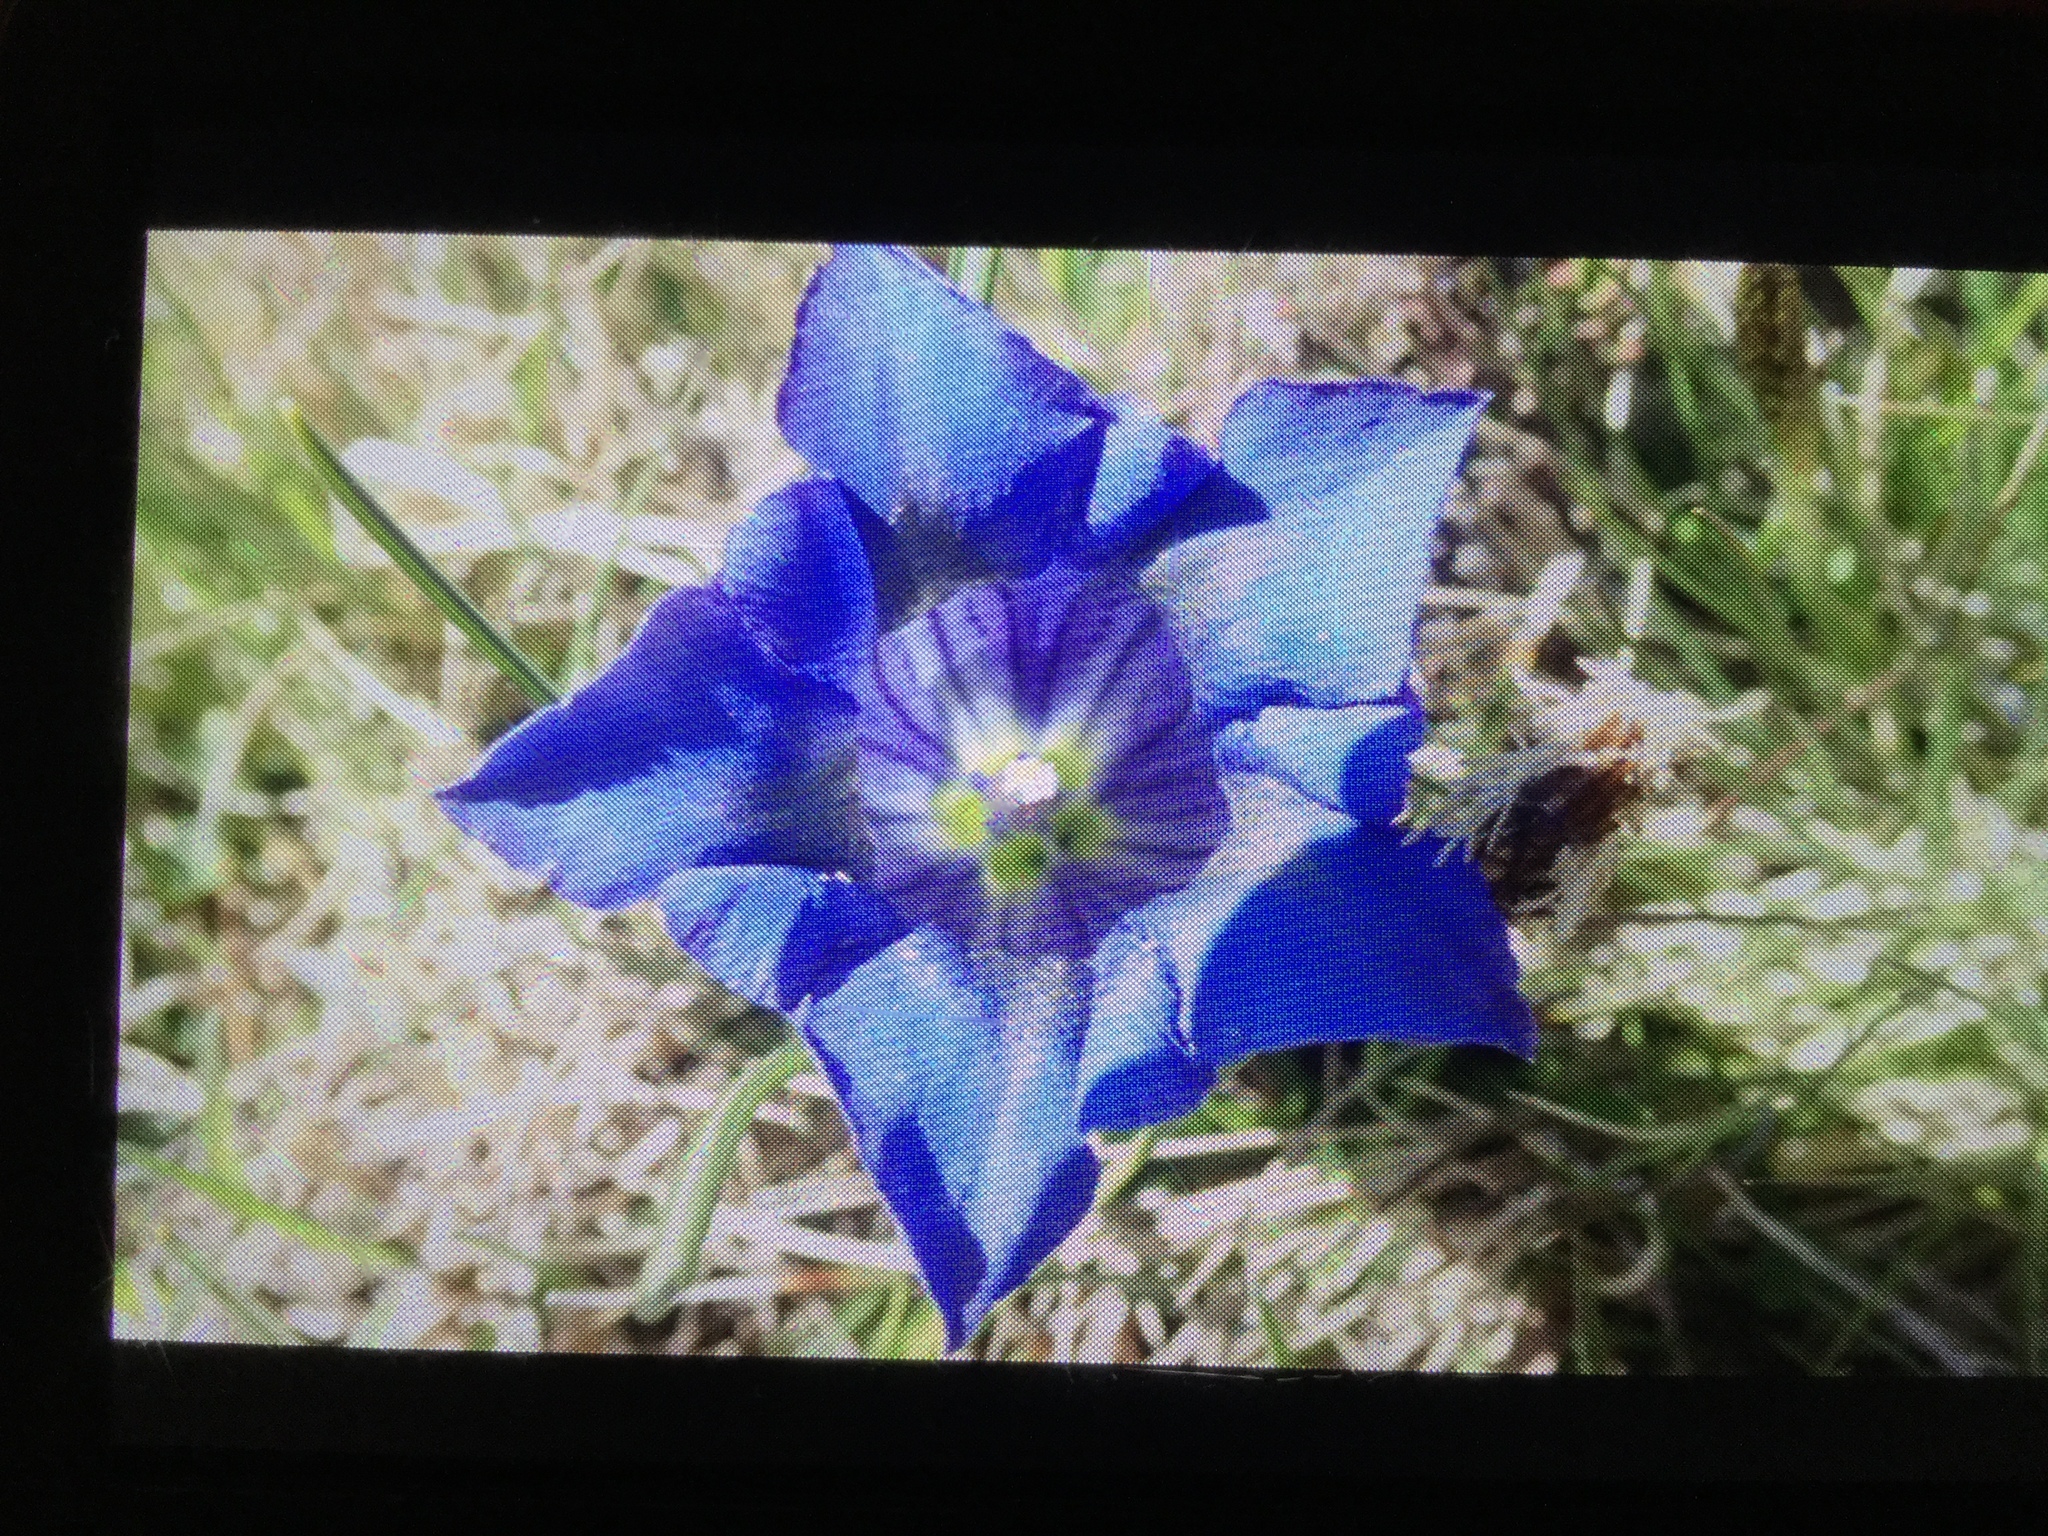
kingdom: Plantae
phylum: Tracheophyta
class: Magnoliopsida
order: Gentianales
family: Gentianaceae
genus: Gentiana
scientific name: Gentiana acaulis
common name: Trumpet gentian
